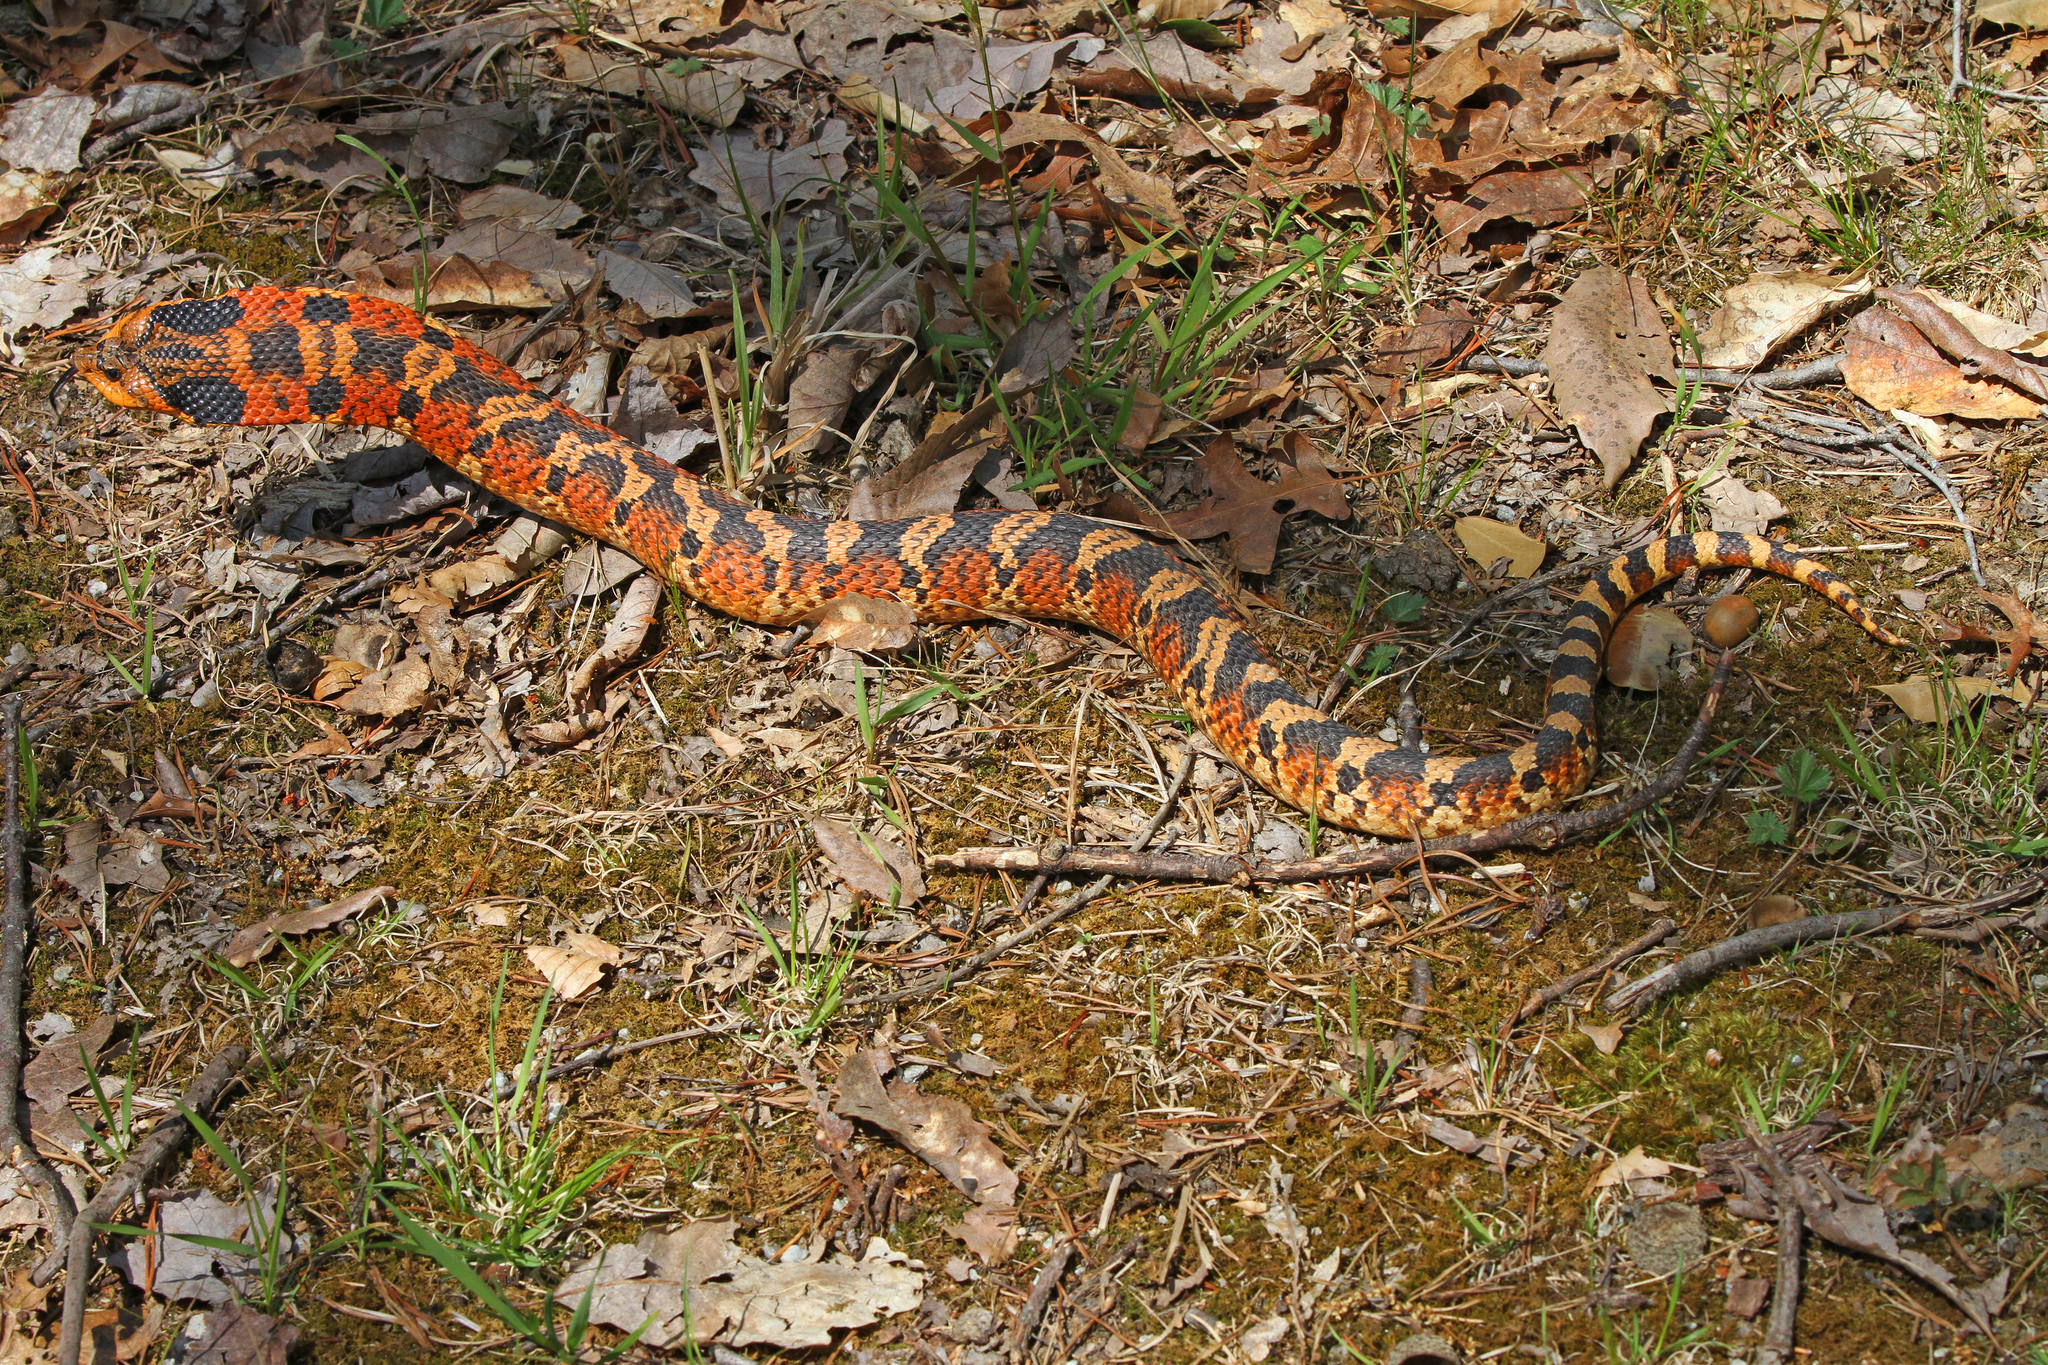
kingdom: Animalia
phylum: Chordata
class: Squamata
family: Colubridae
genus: Heterodon
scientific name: Heterodon platirhinos
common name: Eastern hognose snake
